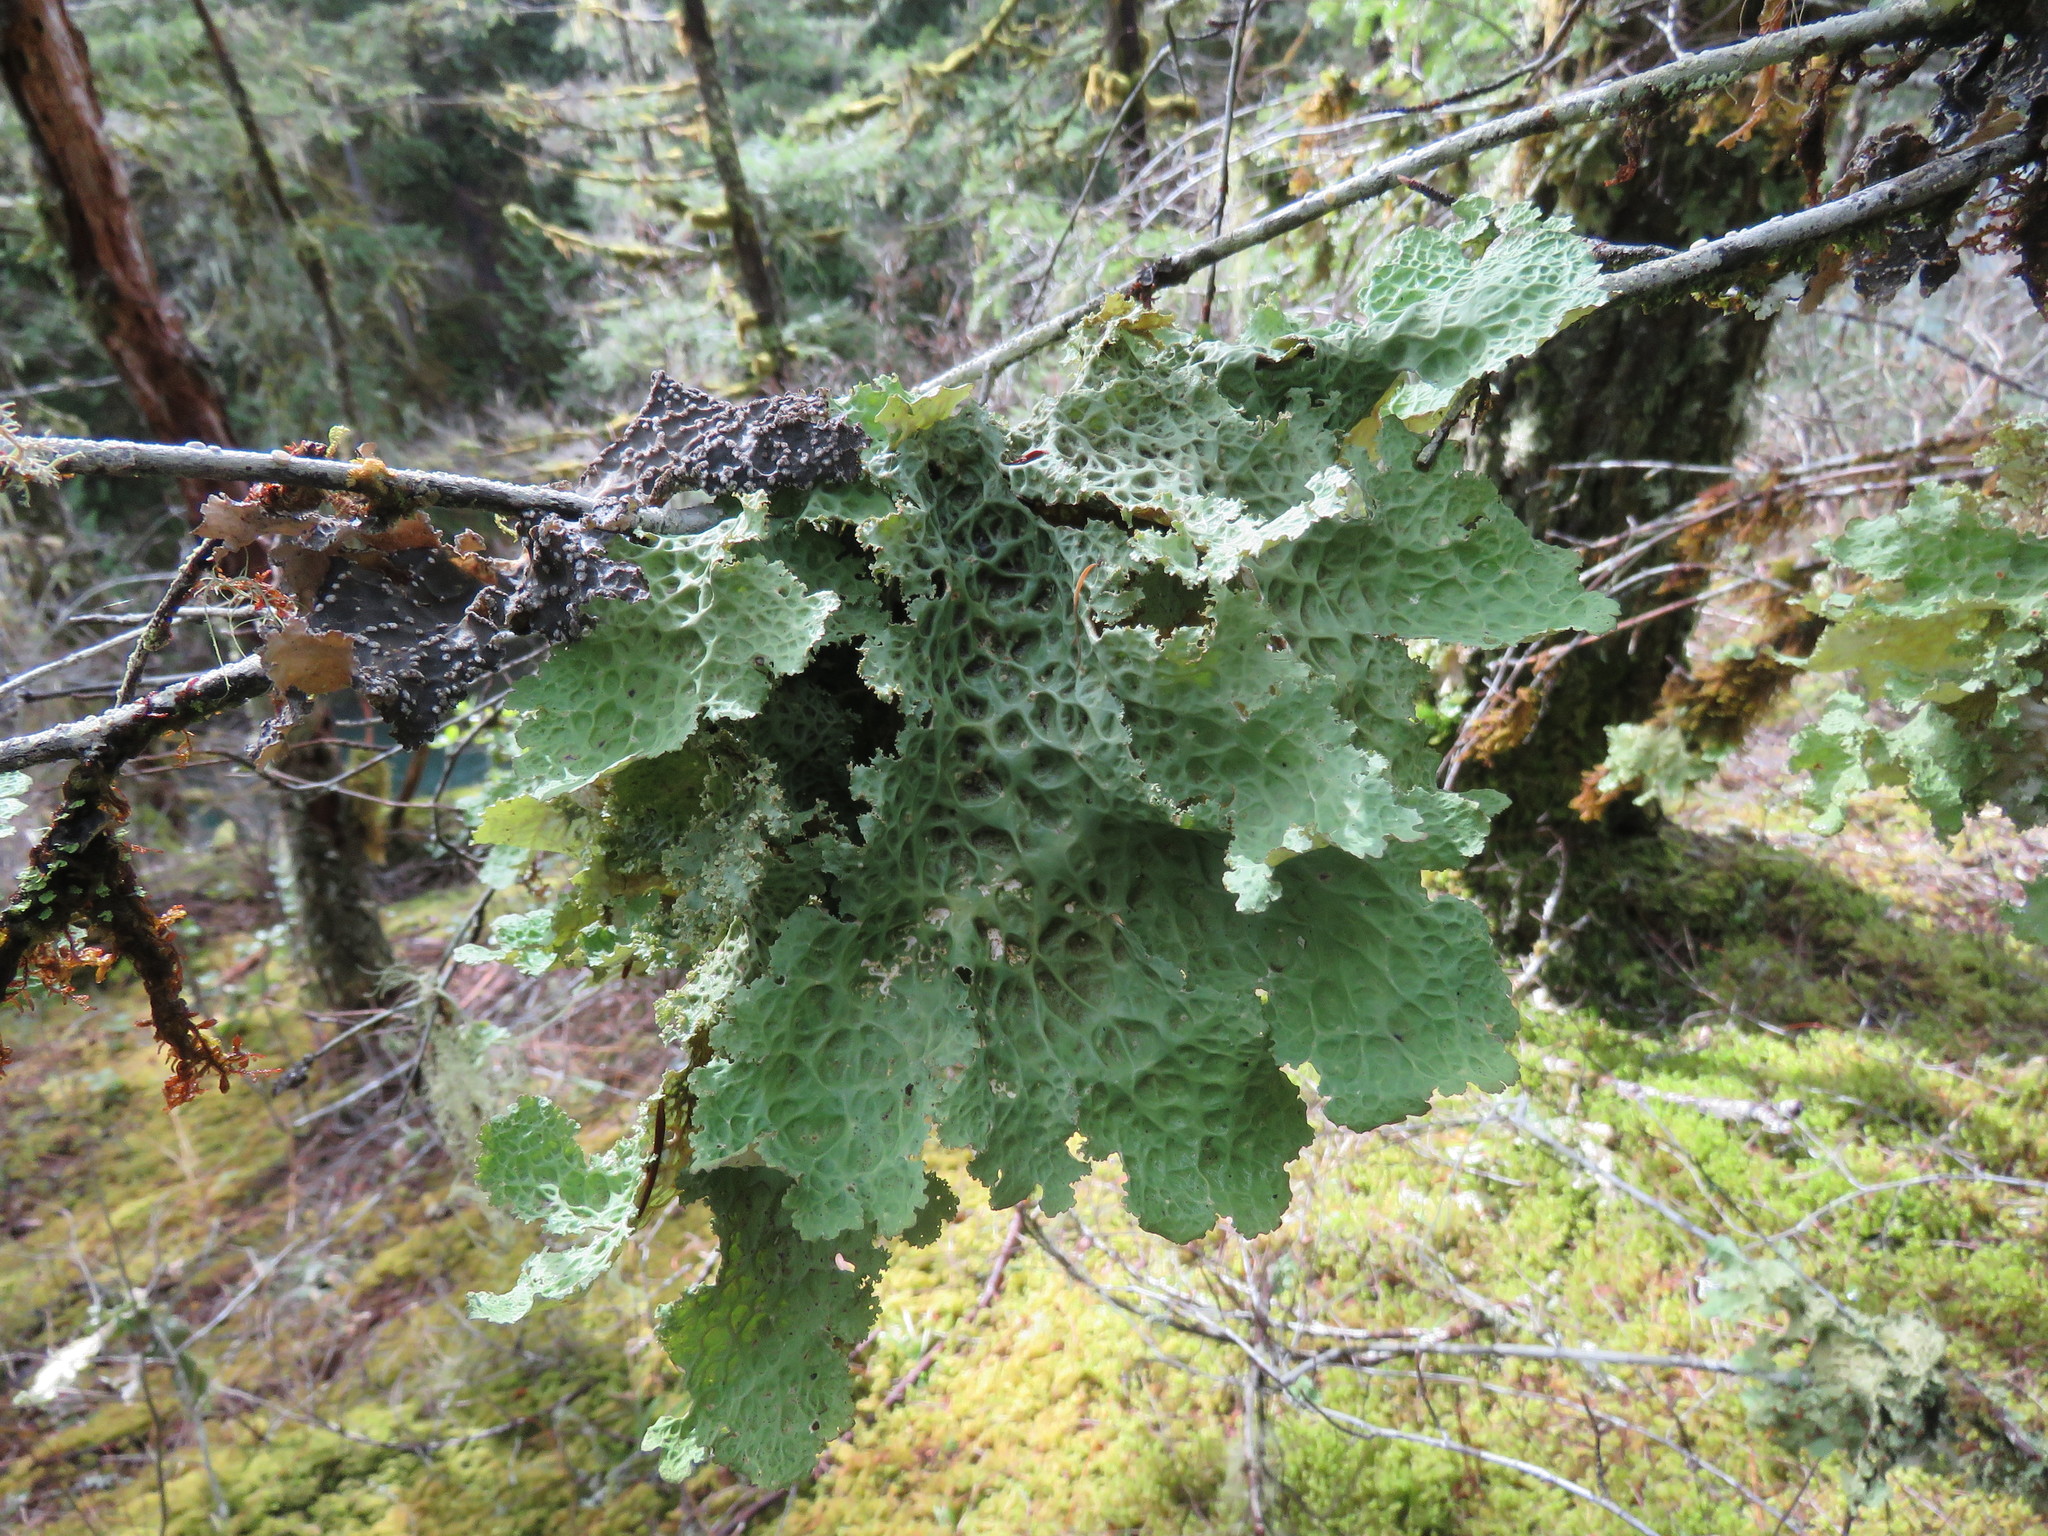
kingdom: Fungi
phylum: Ascomycota
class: Lecanoromycetes
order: Peltigerales
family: Lobariaceae
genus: Lobaria
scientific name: Lobaria oregana
